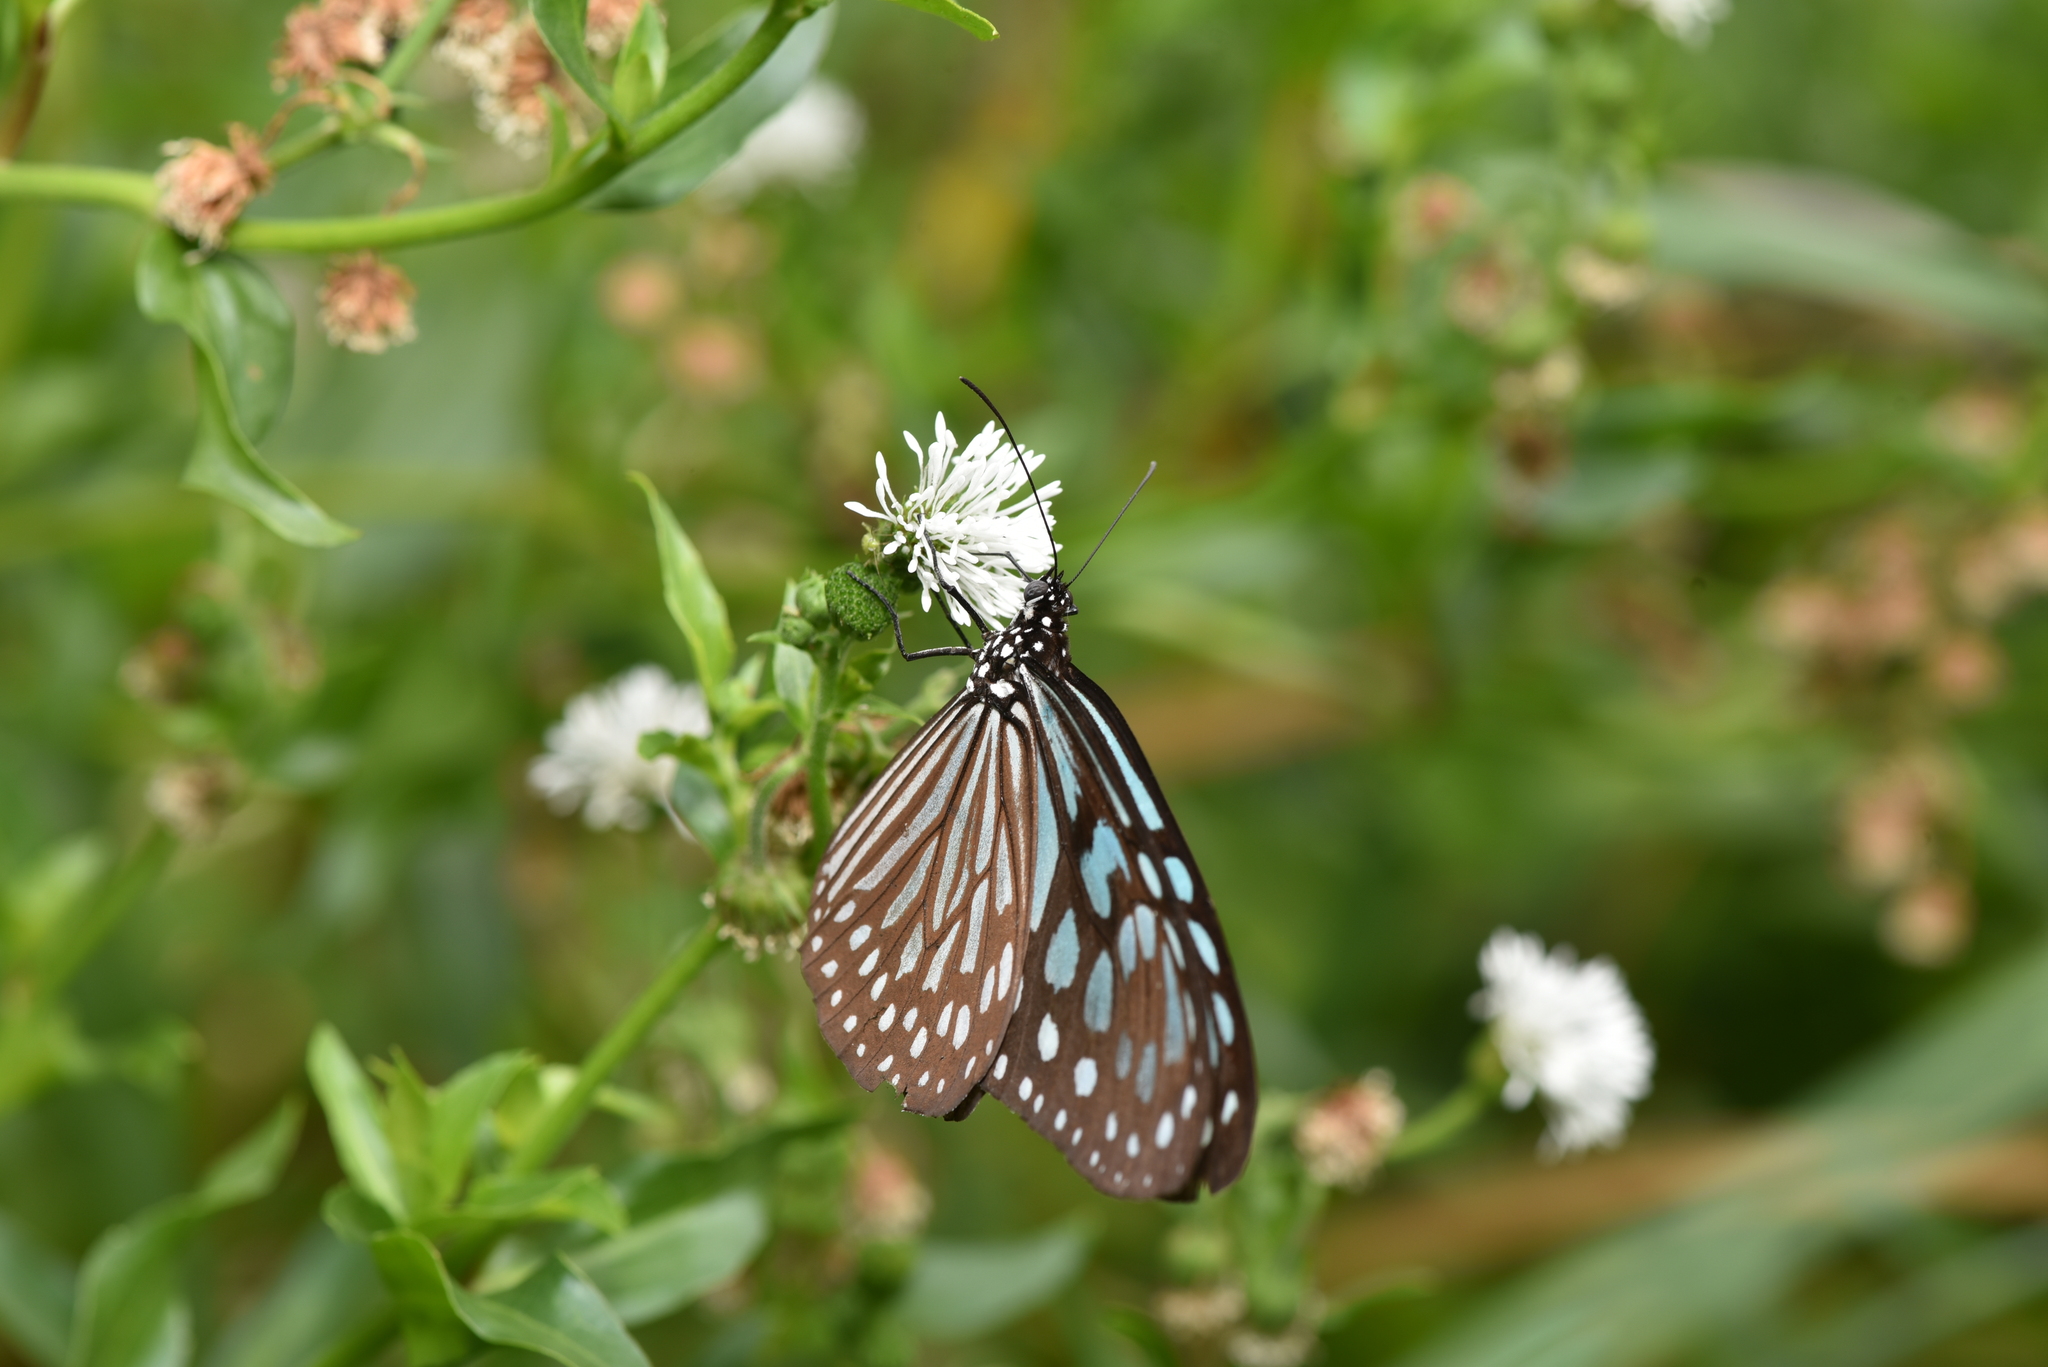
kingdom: Animalia
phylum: Arthropoda
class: Insecta
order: Lepidoptera
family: Nymphalidae
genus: Ideopsis
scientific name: Ideopsis similis
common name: Ceylon blue glassy tiger
